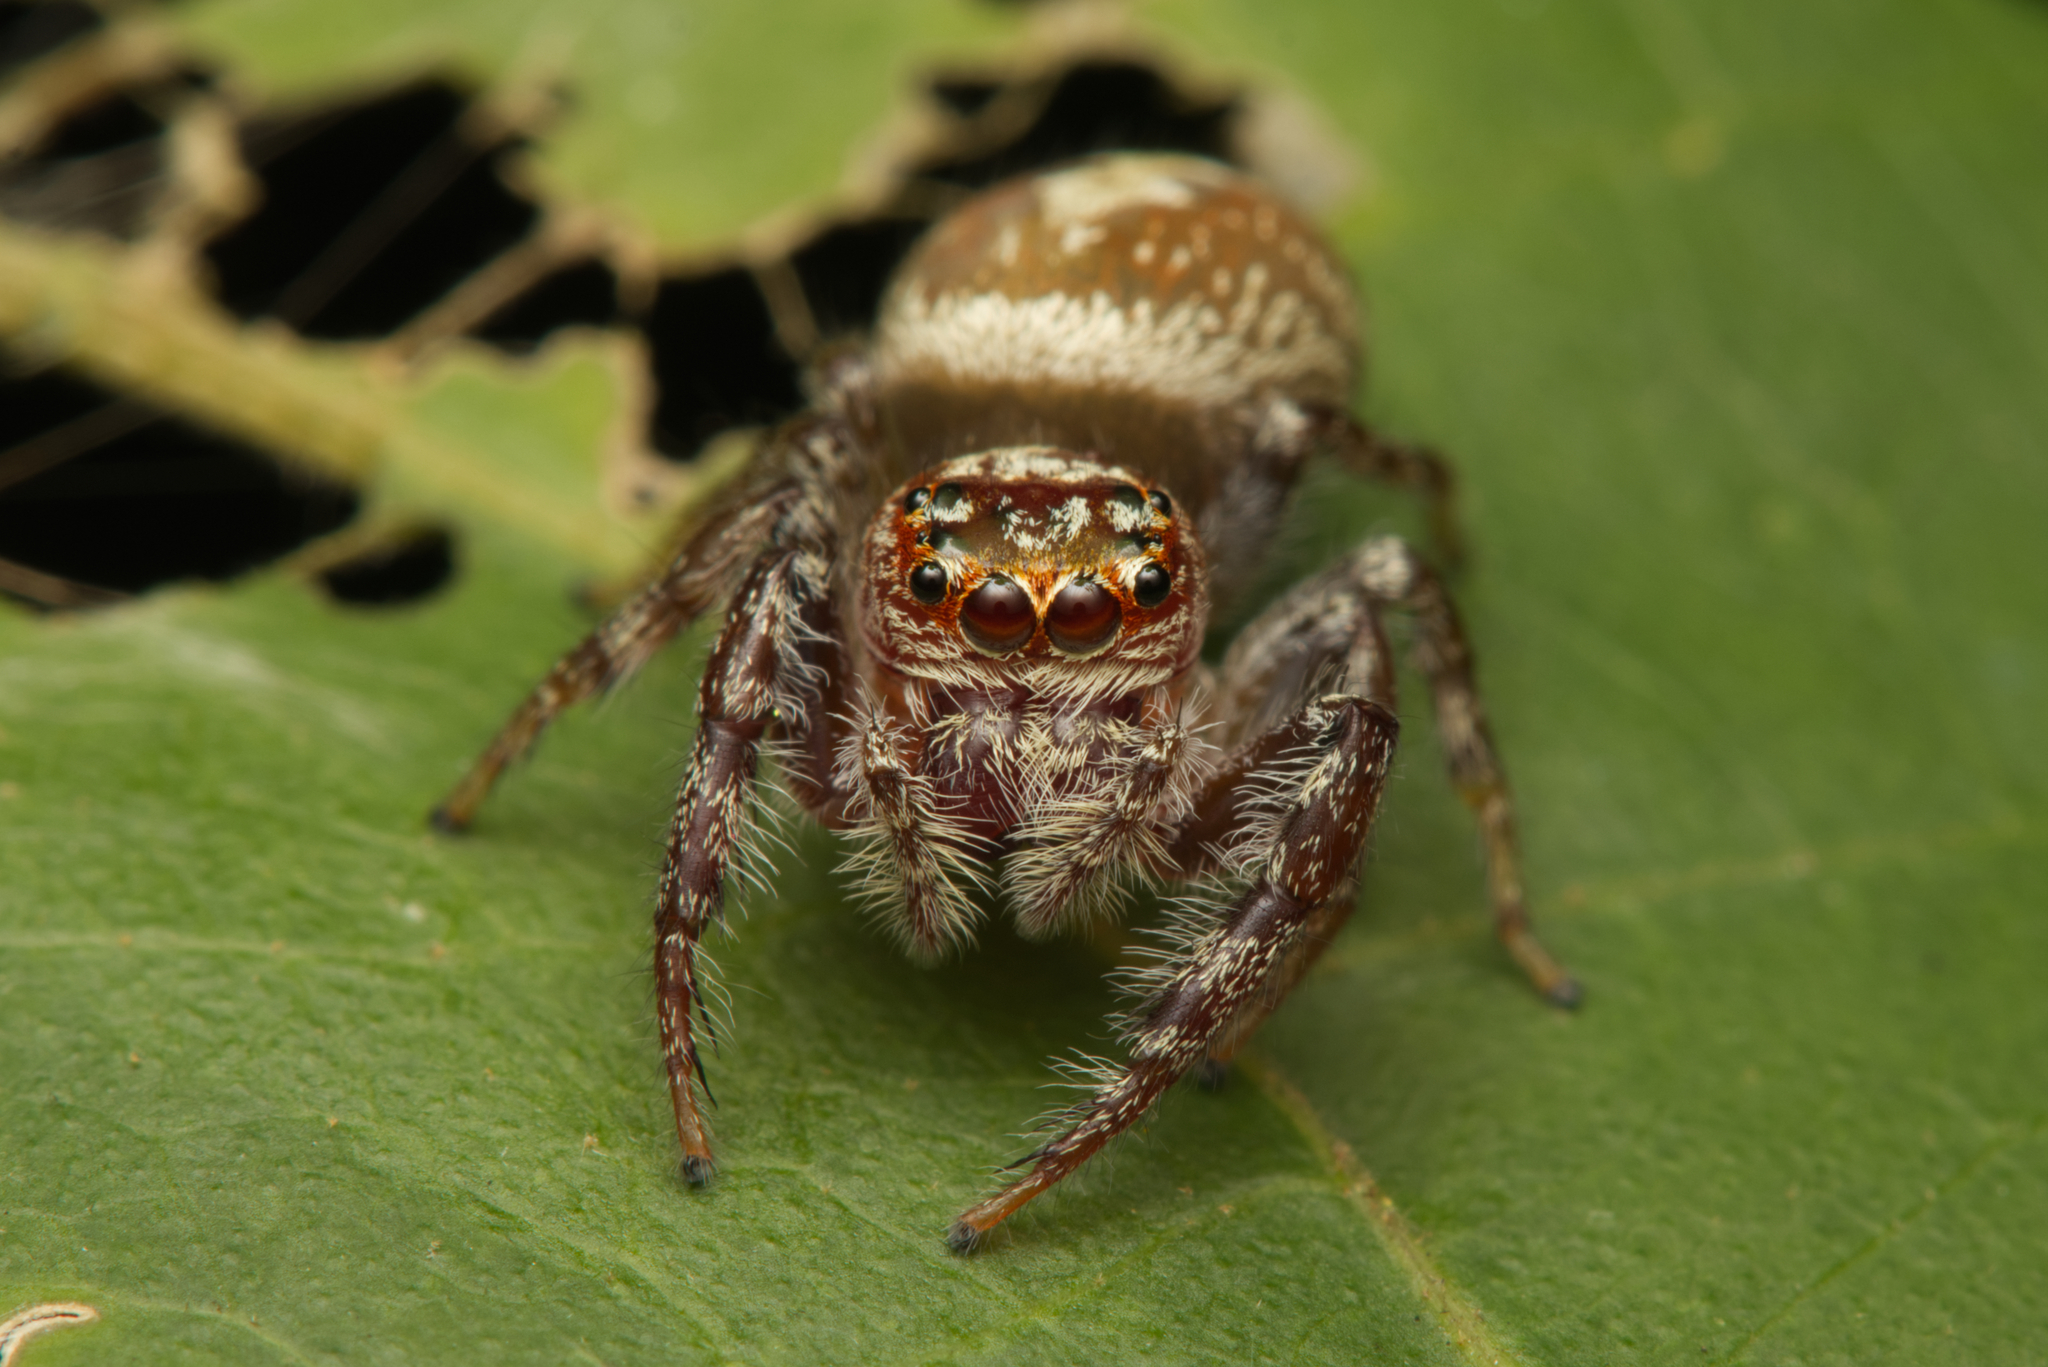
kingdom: Animalia
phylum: Arthropoda
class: Arachnida
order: Araneae
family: Salticidae
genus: Opisthoncus
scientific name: Opisthoncus quadratarius
